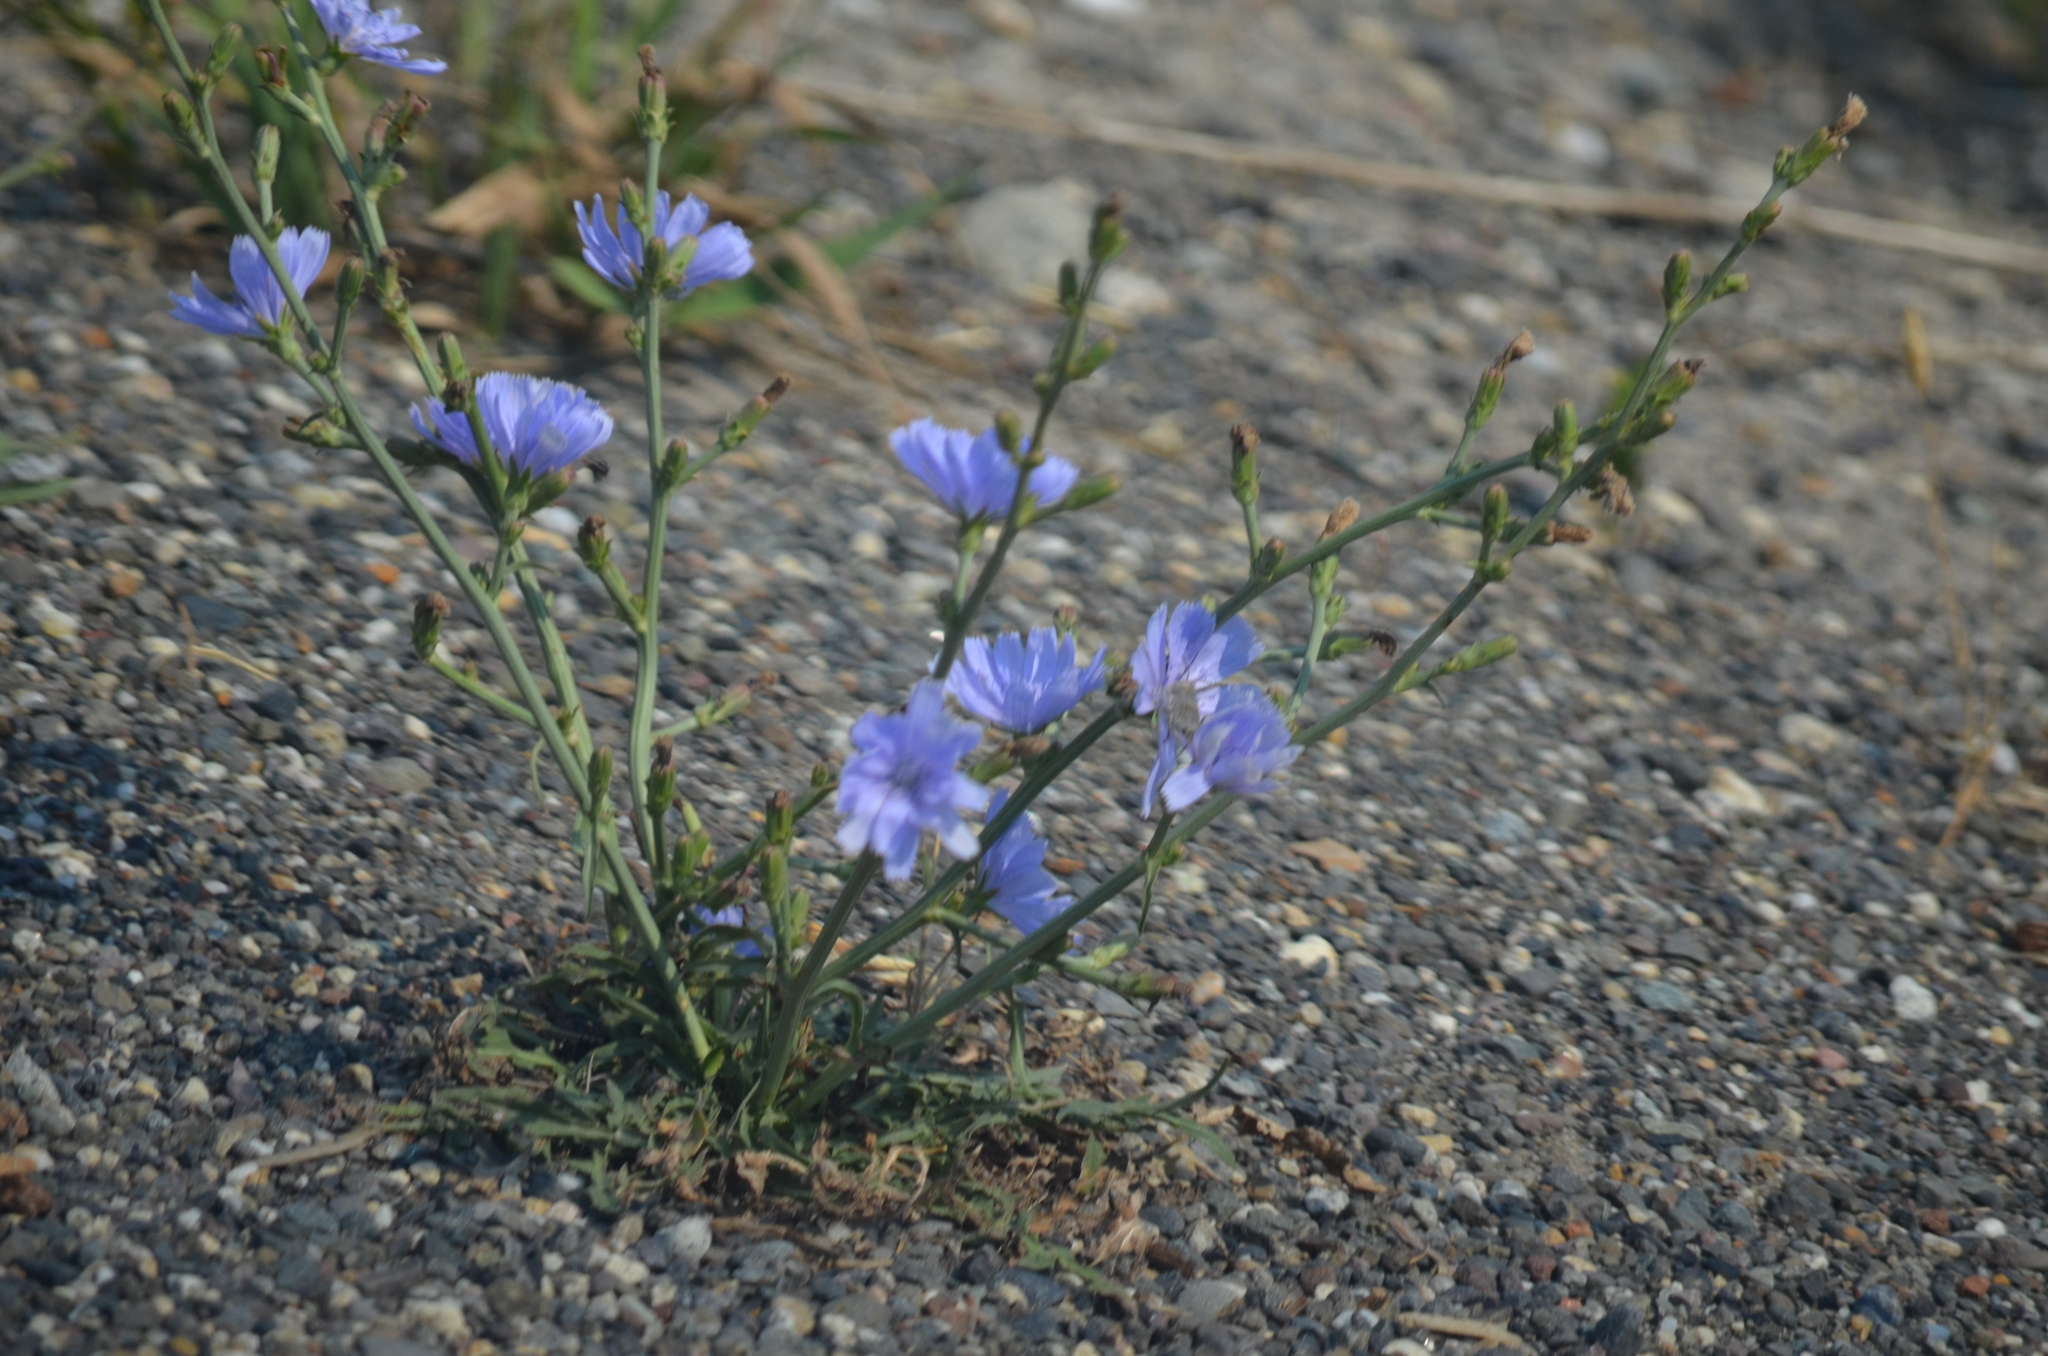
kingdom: Plantae
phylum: Tracheophyta
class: Magnoliopsida
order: Asterales
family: Asteraceae
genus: Cichorium
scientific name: Cichorium intybus
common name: Chicory
